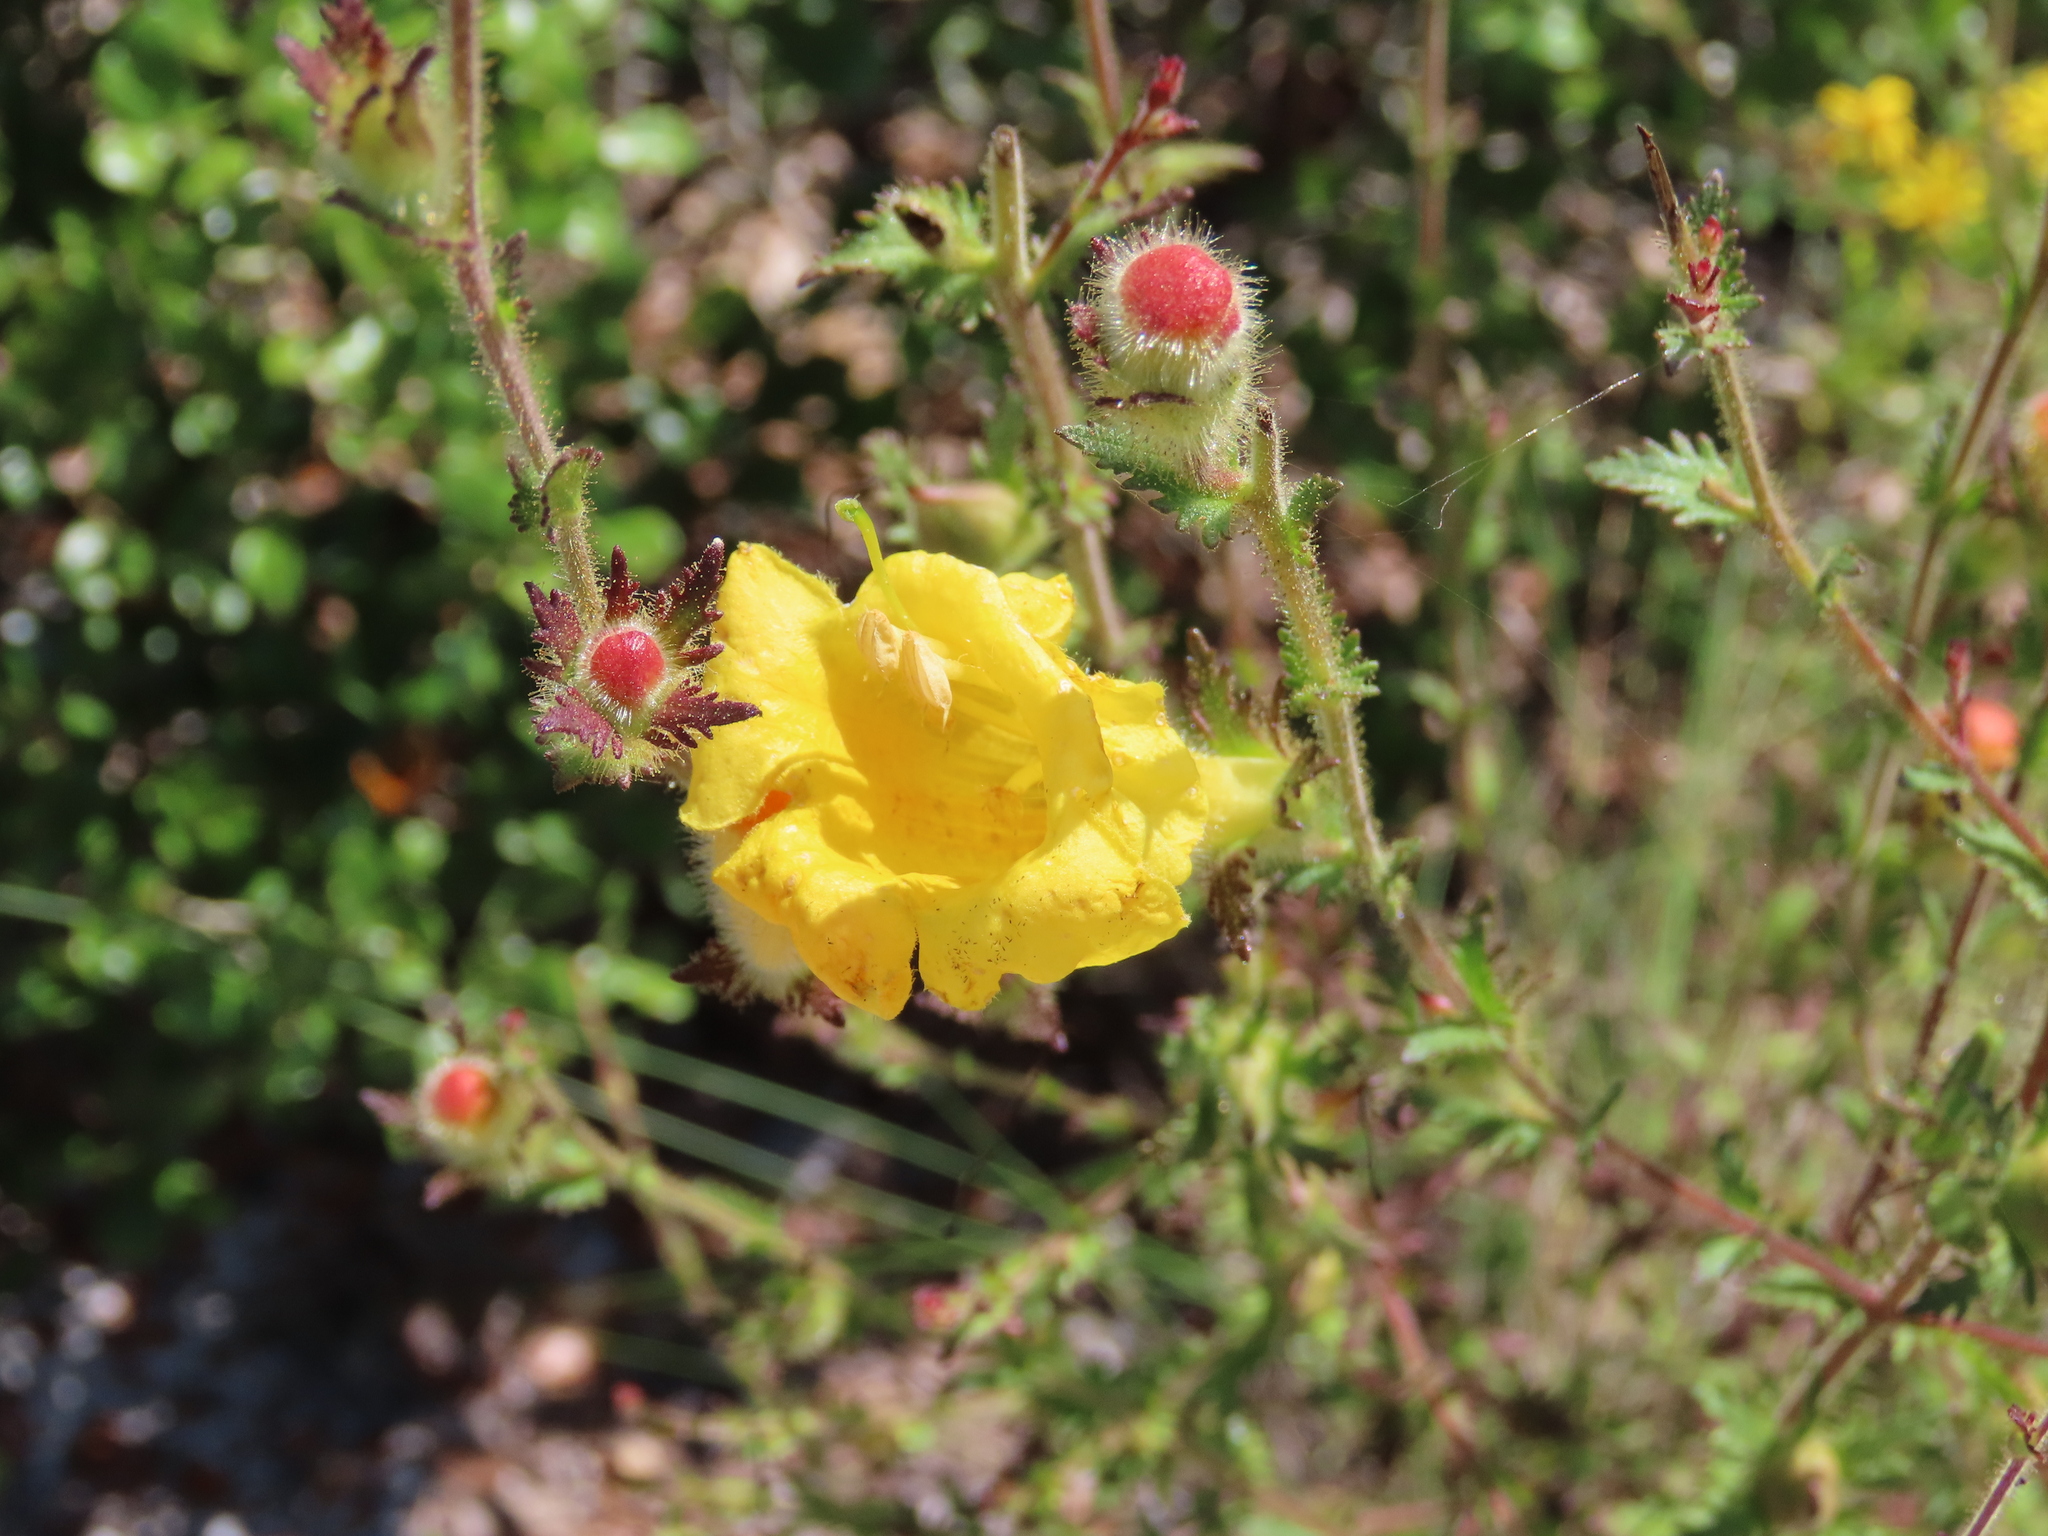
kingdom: Plantae
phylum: Tracheophyta
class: Magnoliopsida
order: Lamiales
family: Orobanchaceae
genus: Aureolaria
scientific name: Aureolaria pectinata
